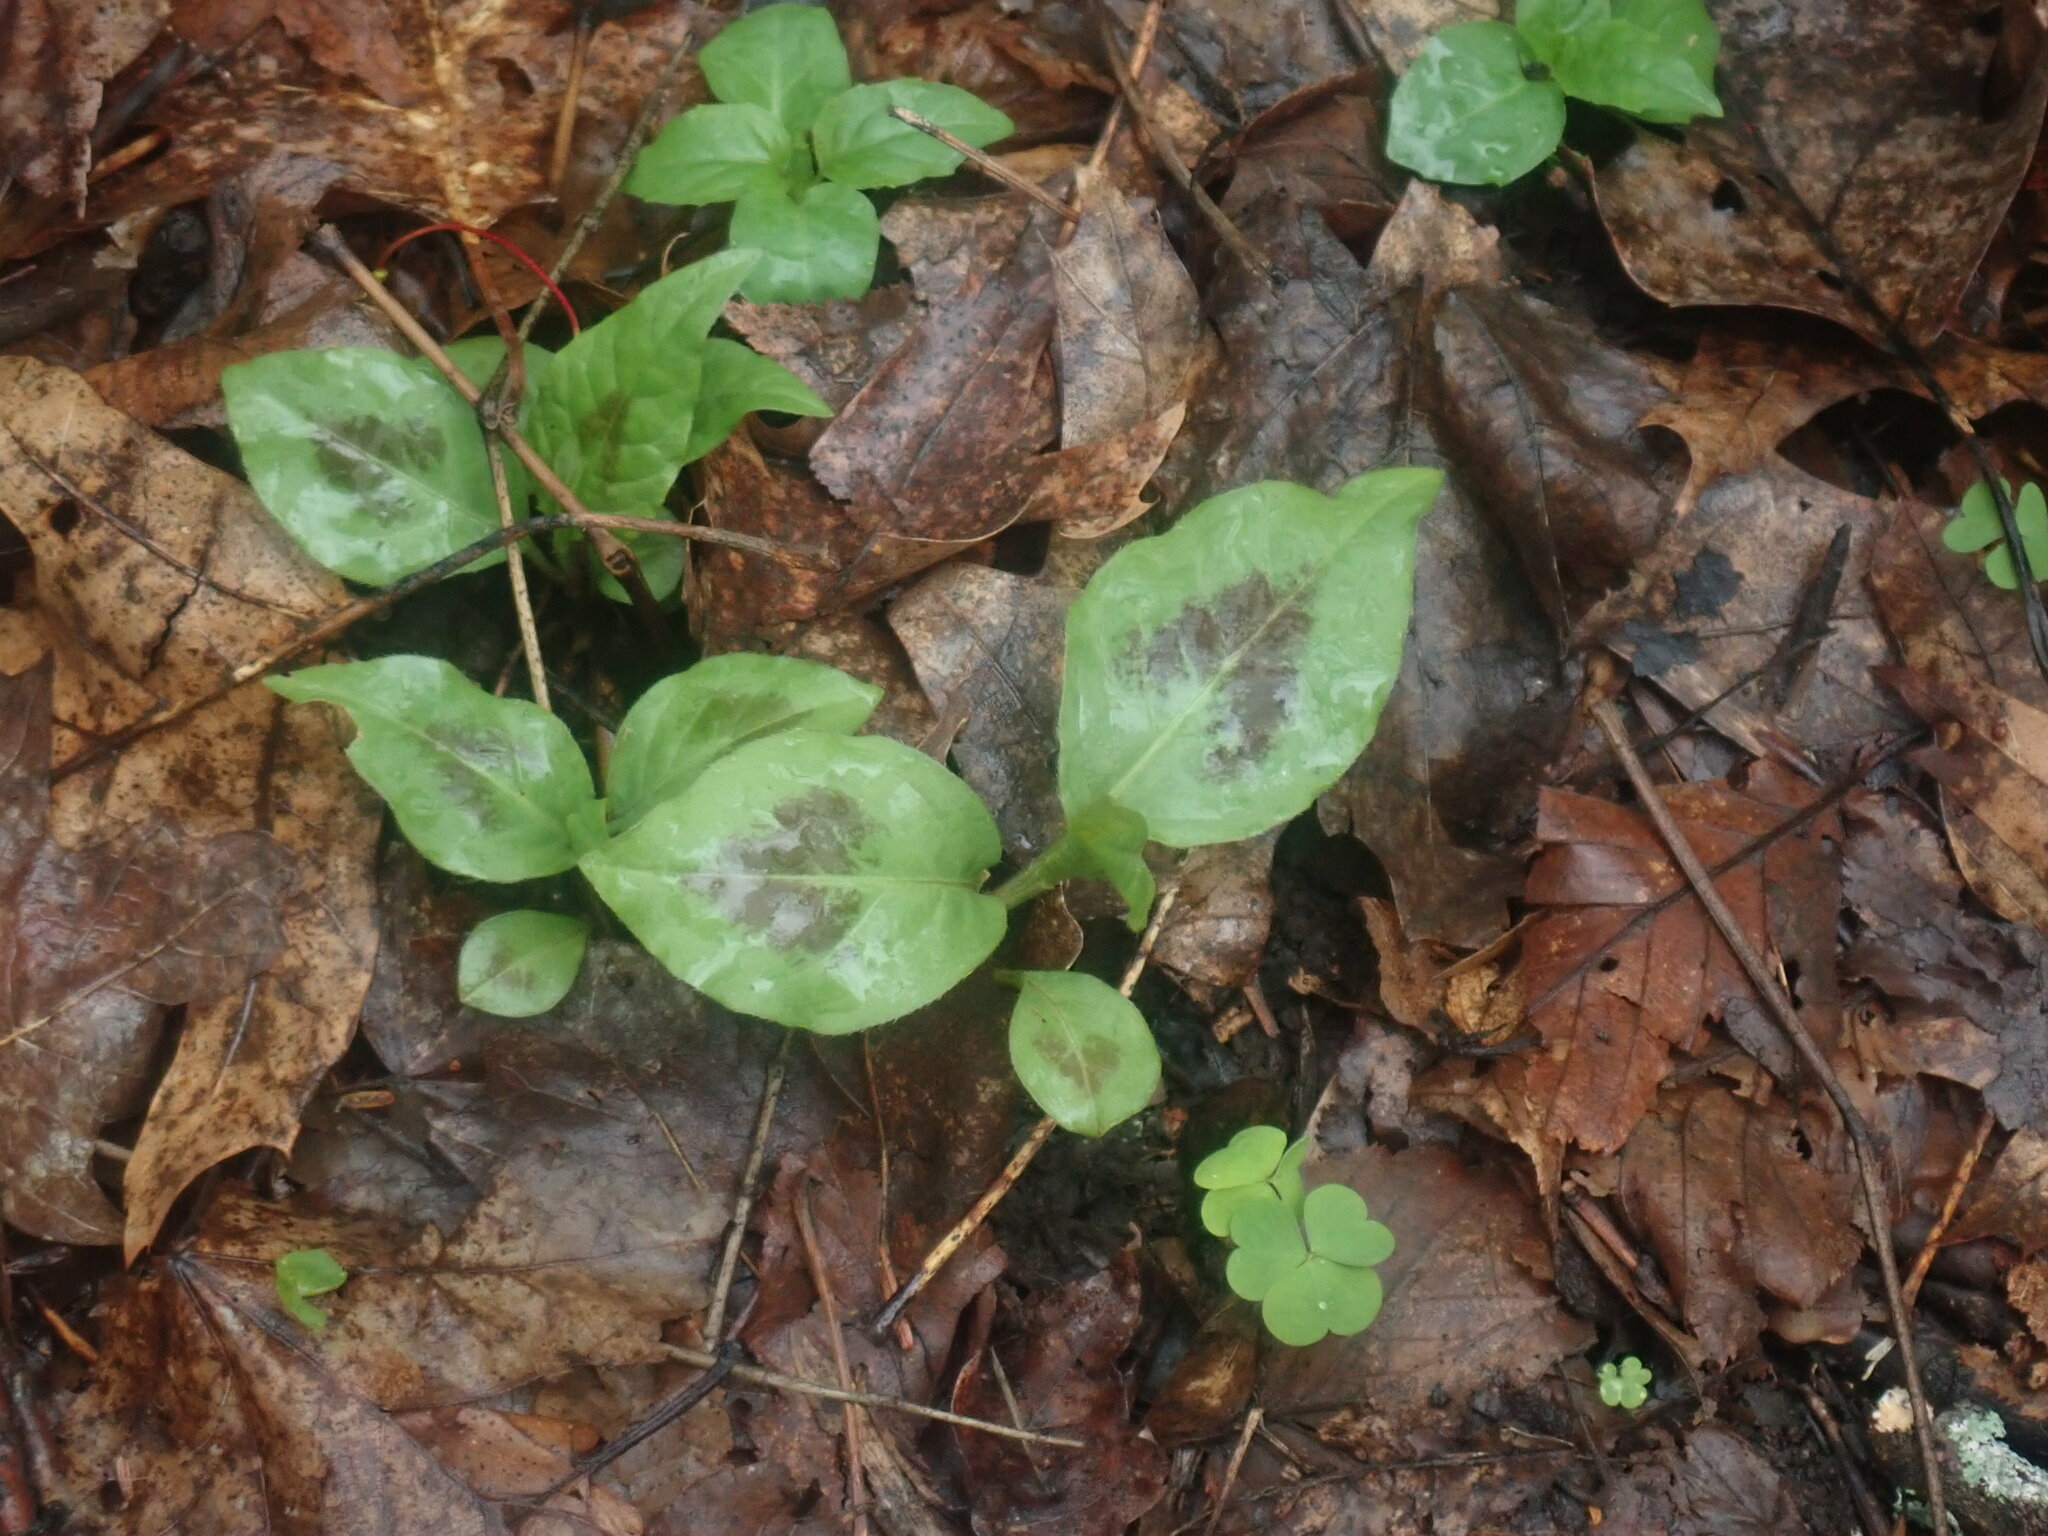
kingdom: Plantae
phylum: Tracheophyta
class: Magnoliopsida
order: Caryophyllales
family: Polygonaceae
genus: Persicaria
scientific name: Persicaria virginiana
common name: Jumpseed
